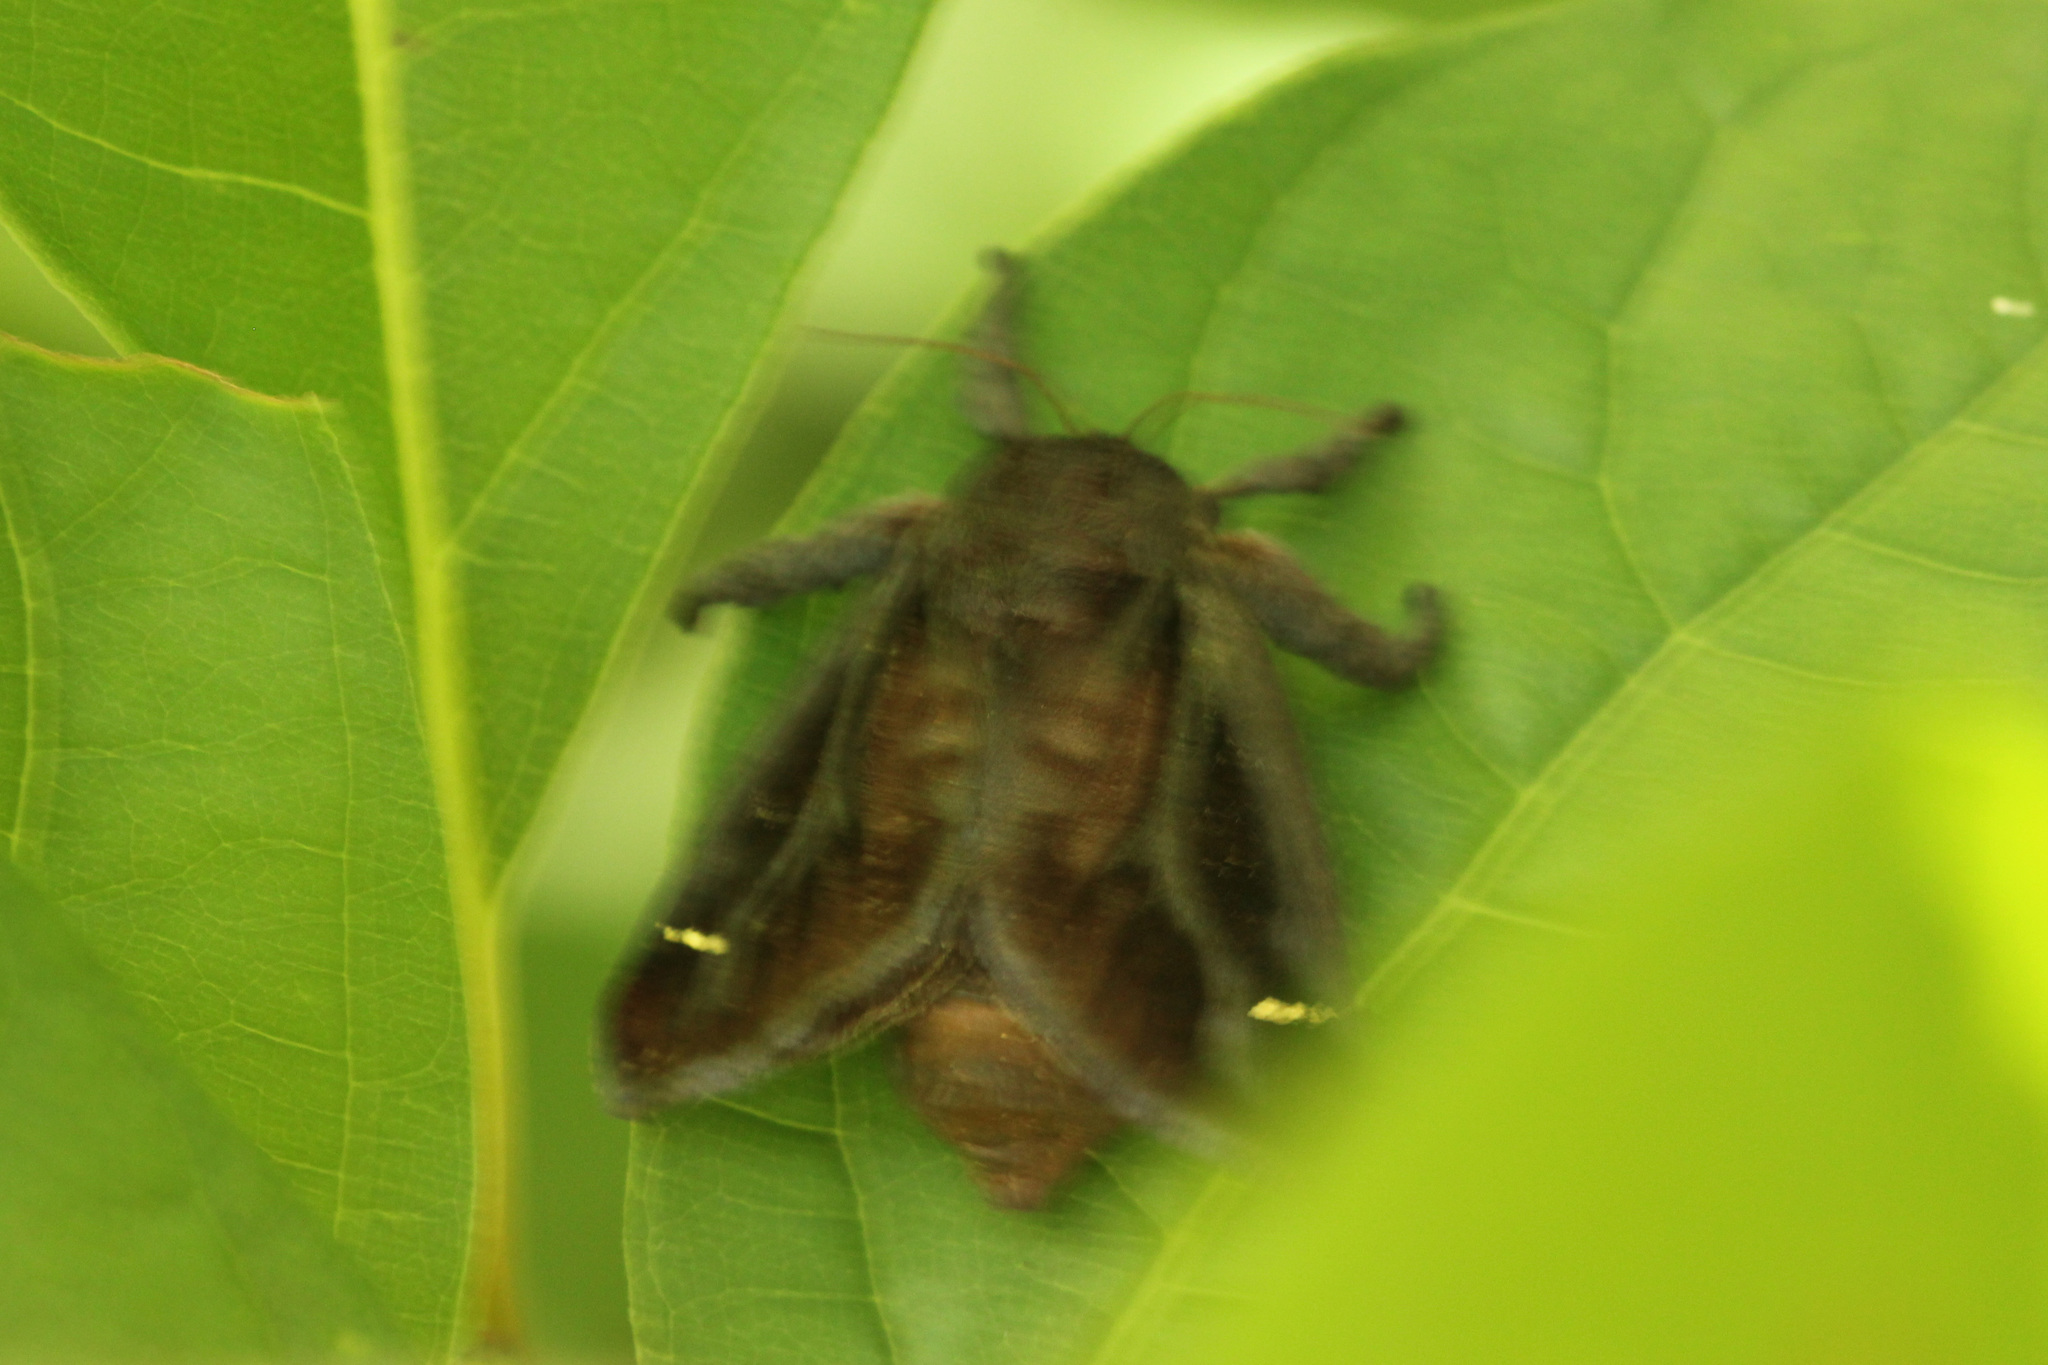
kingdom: Animalia
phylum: Arthropoda
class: Insecta
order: Lepidoptera
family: Limacodidae
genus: Acharia
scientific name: Acharia stimulea
